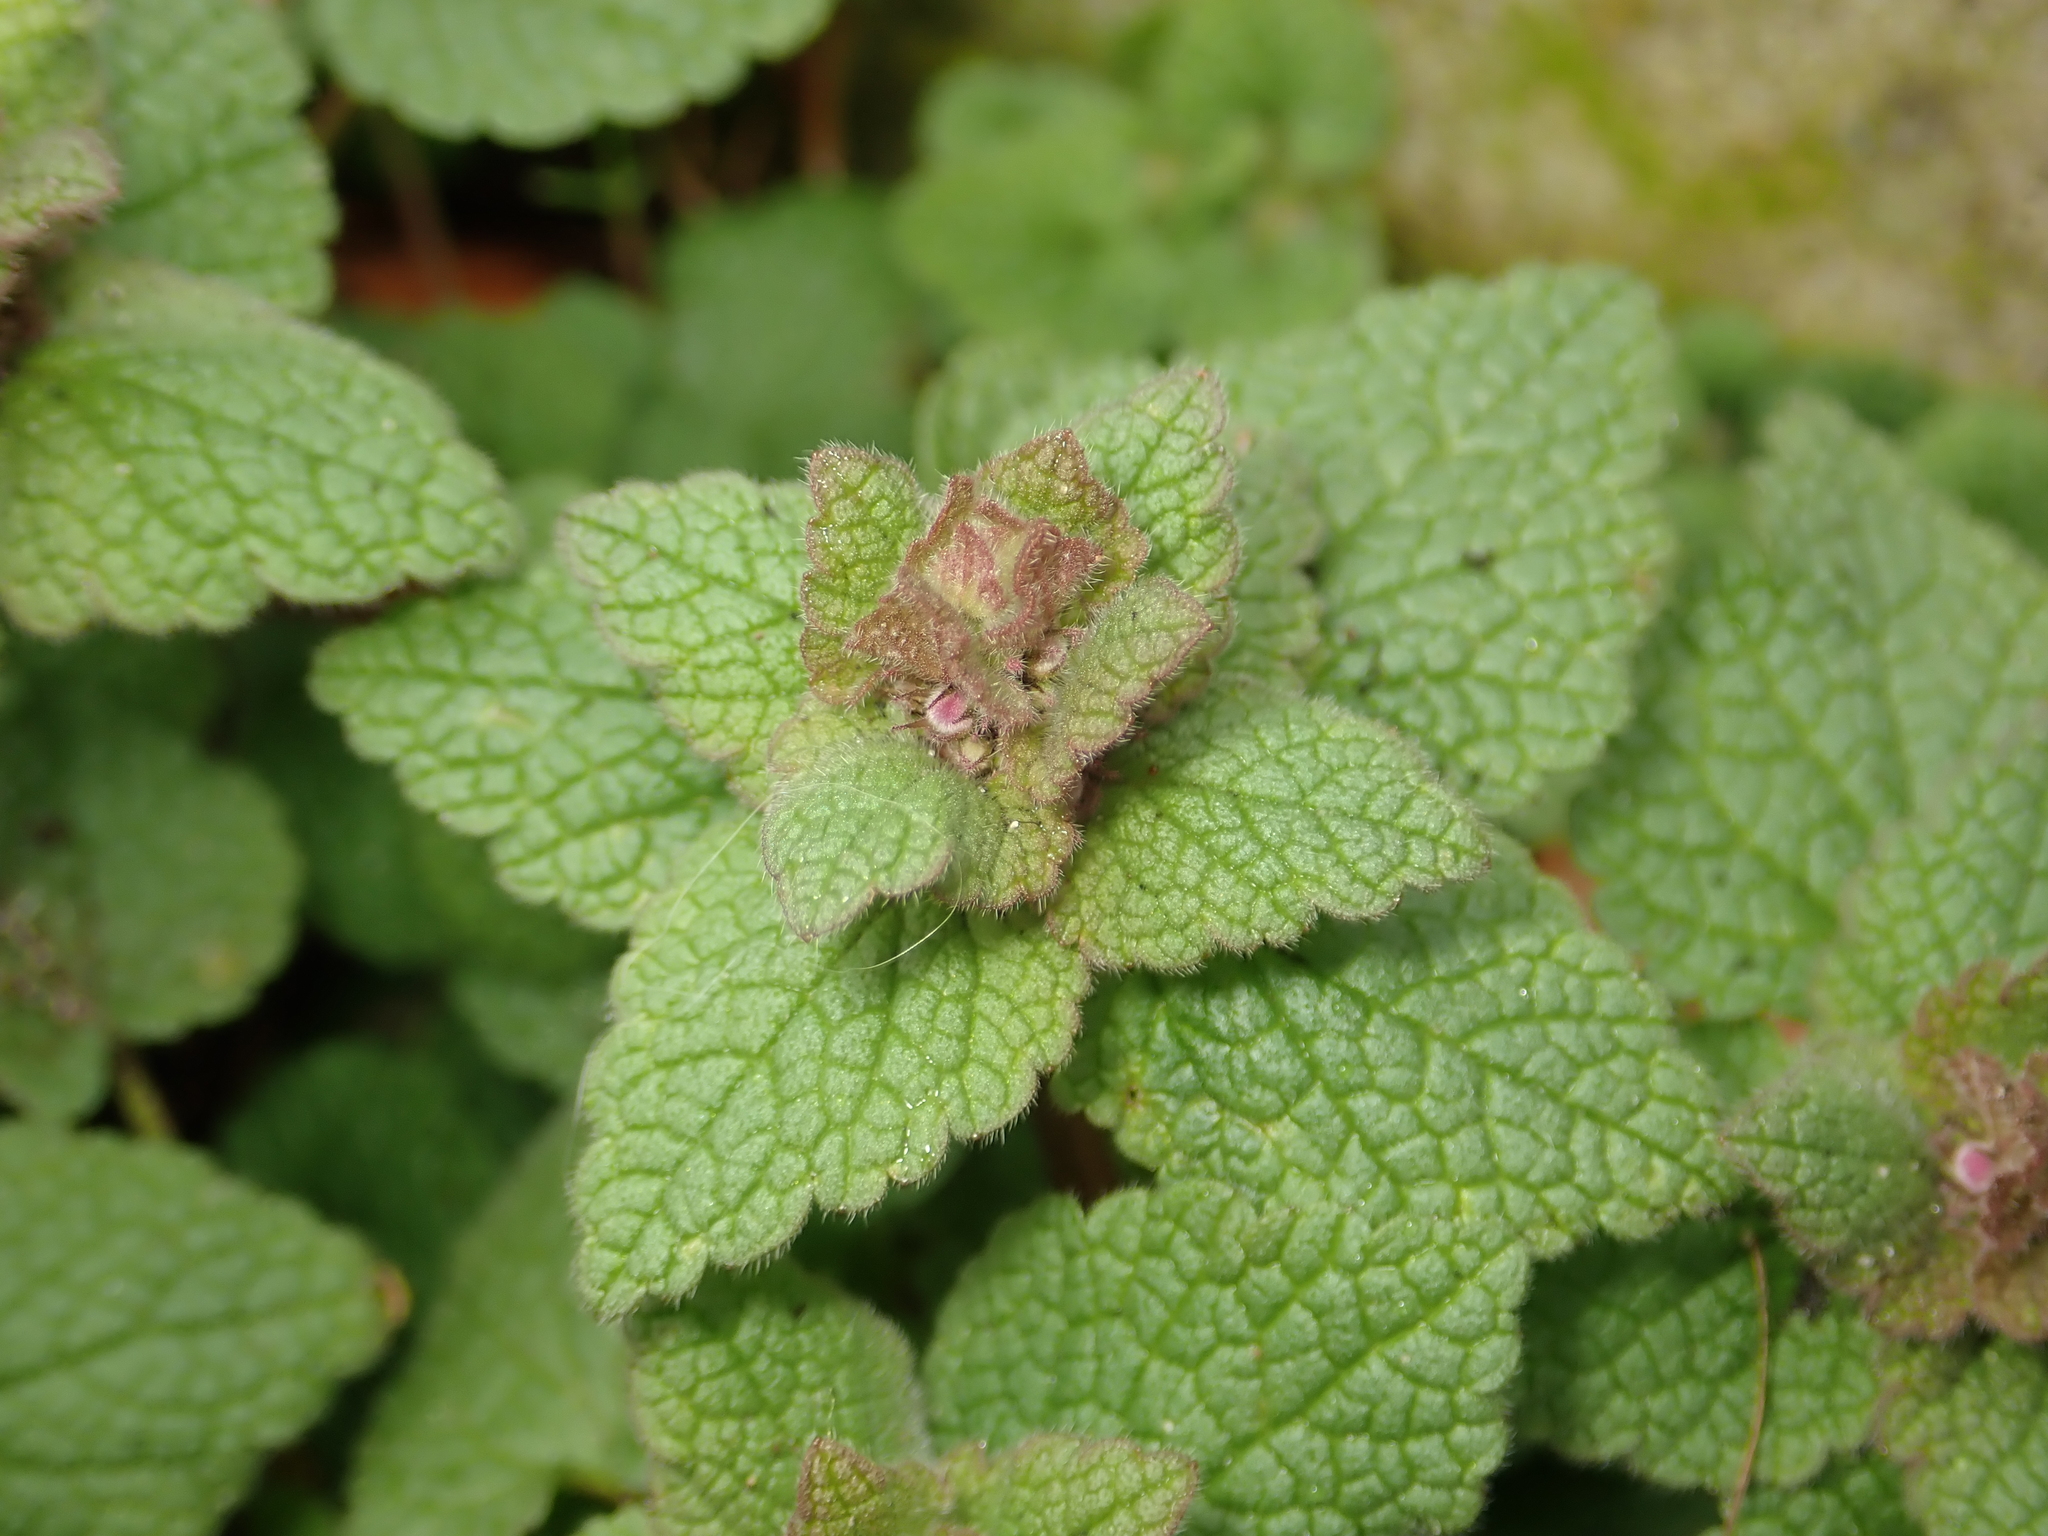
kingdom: Plantae
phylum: Tracheophyta
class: Magnoliopsida
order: Lamiales
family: Lamiaceae
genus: Lamium
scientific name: Lamium purpureum
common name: Red dead-nettle
